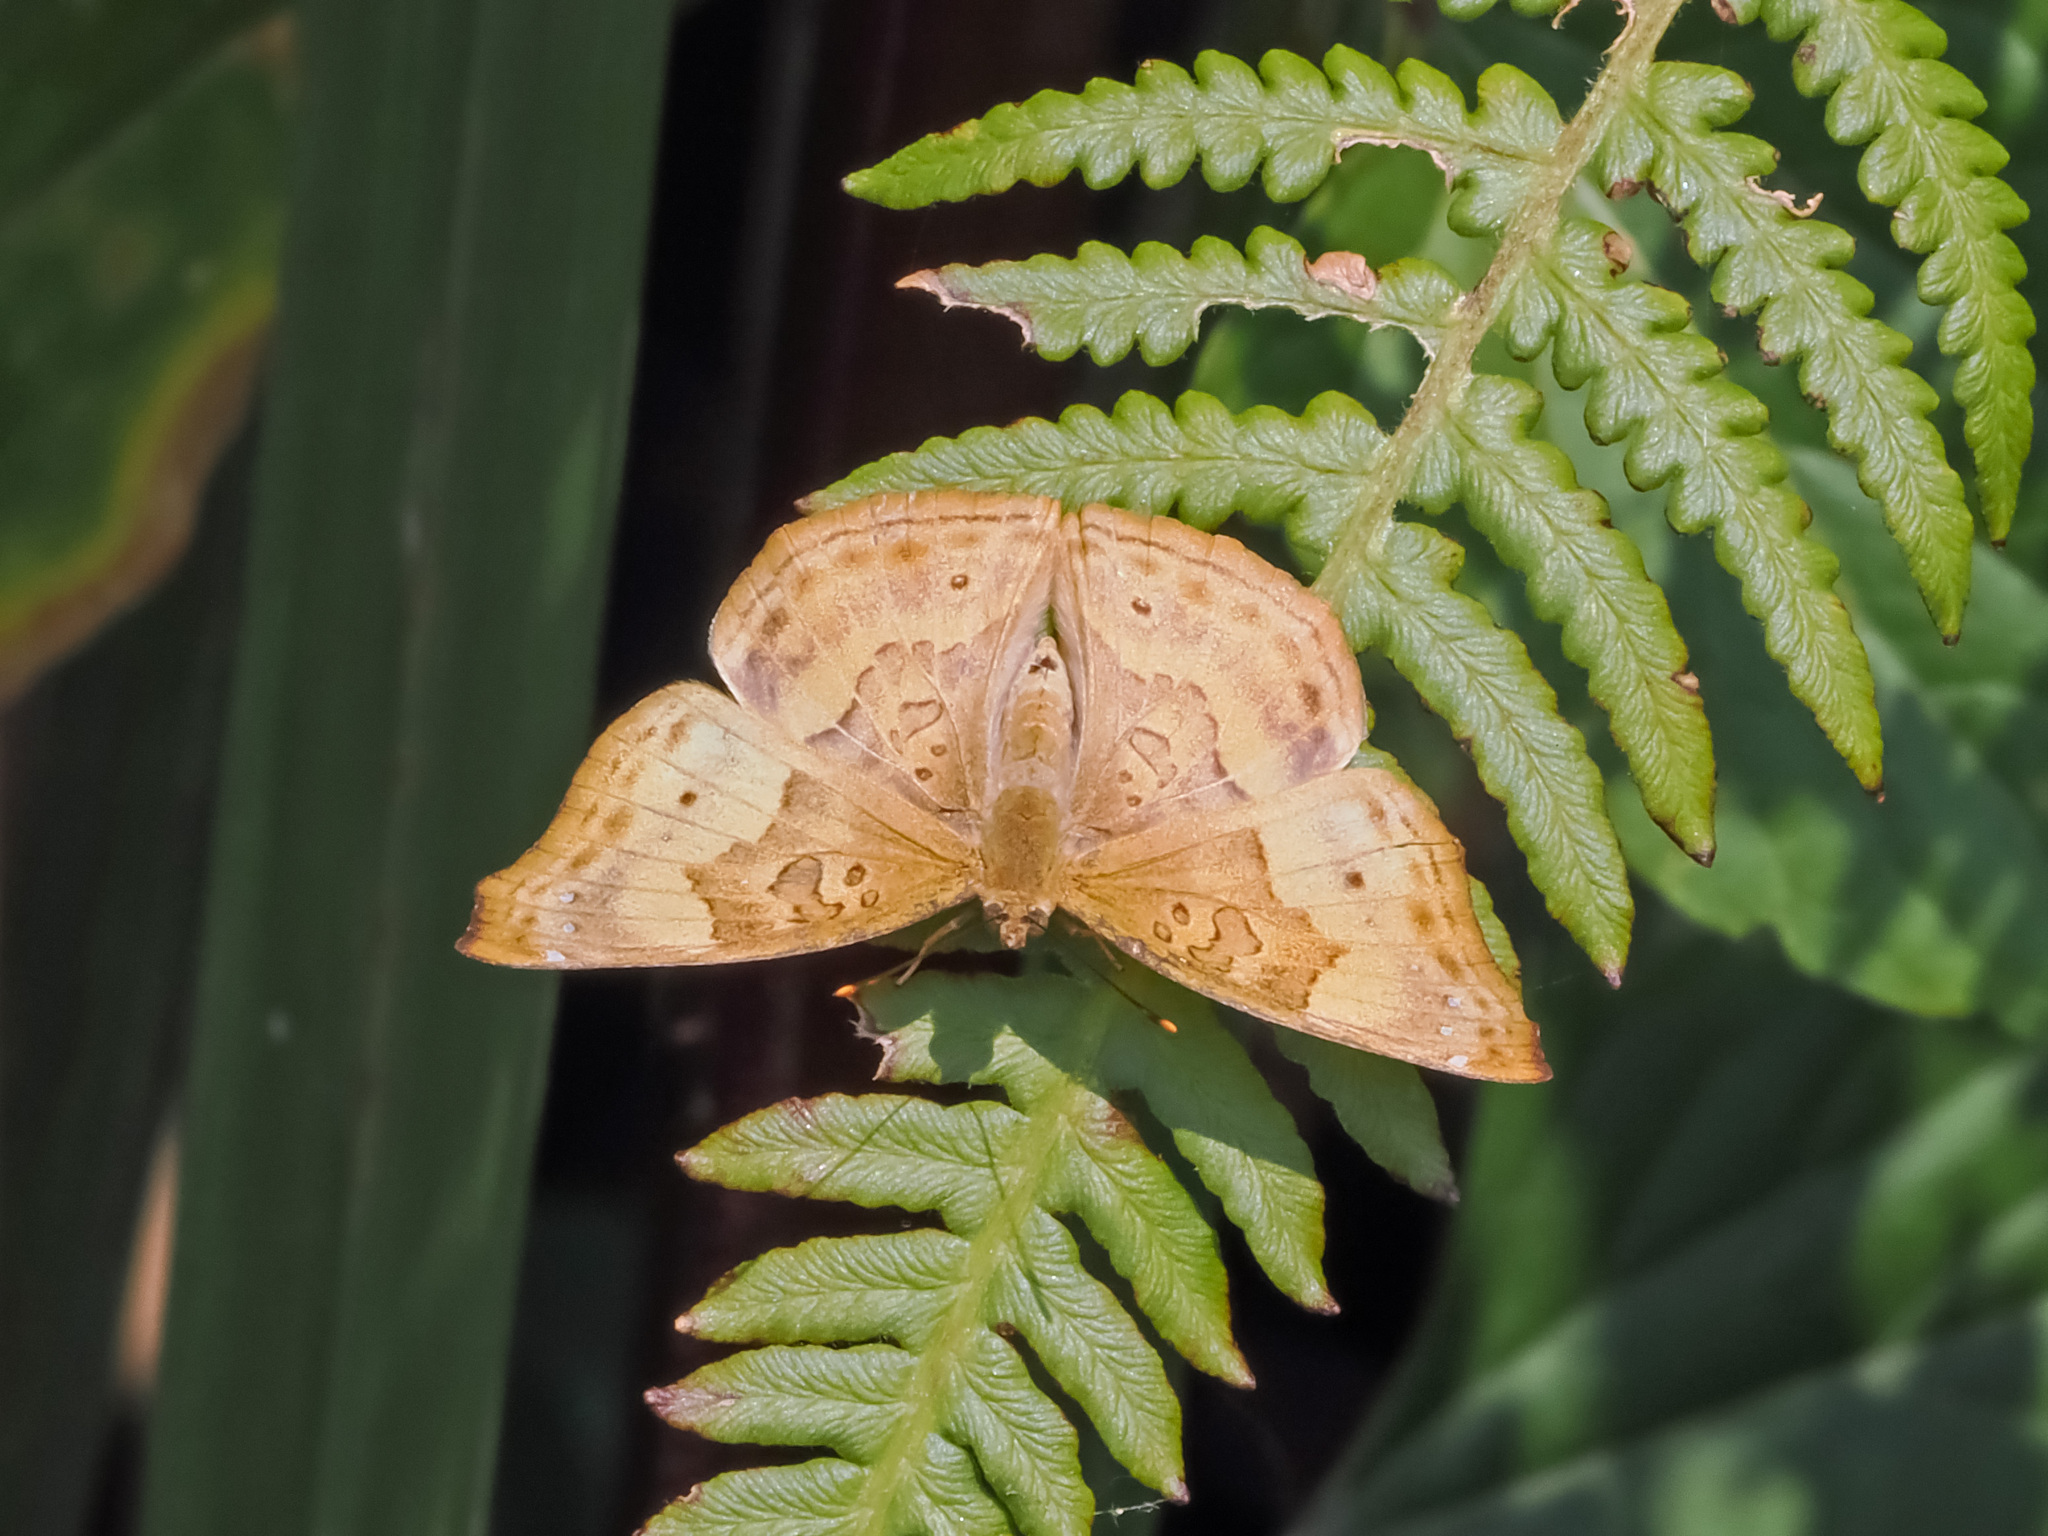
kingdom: Animalia
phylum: Arthropoda
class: Insecta
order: Lepidoptera
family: Nymphalidae
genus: Apatura
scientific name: Apatura Rohana spec
